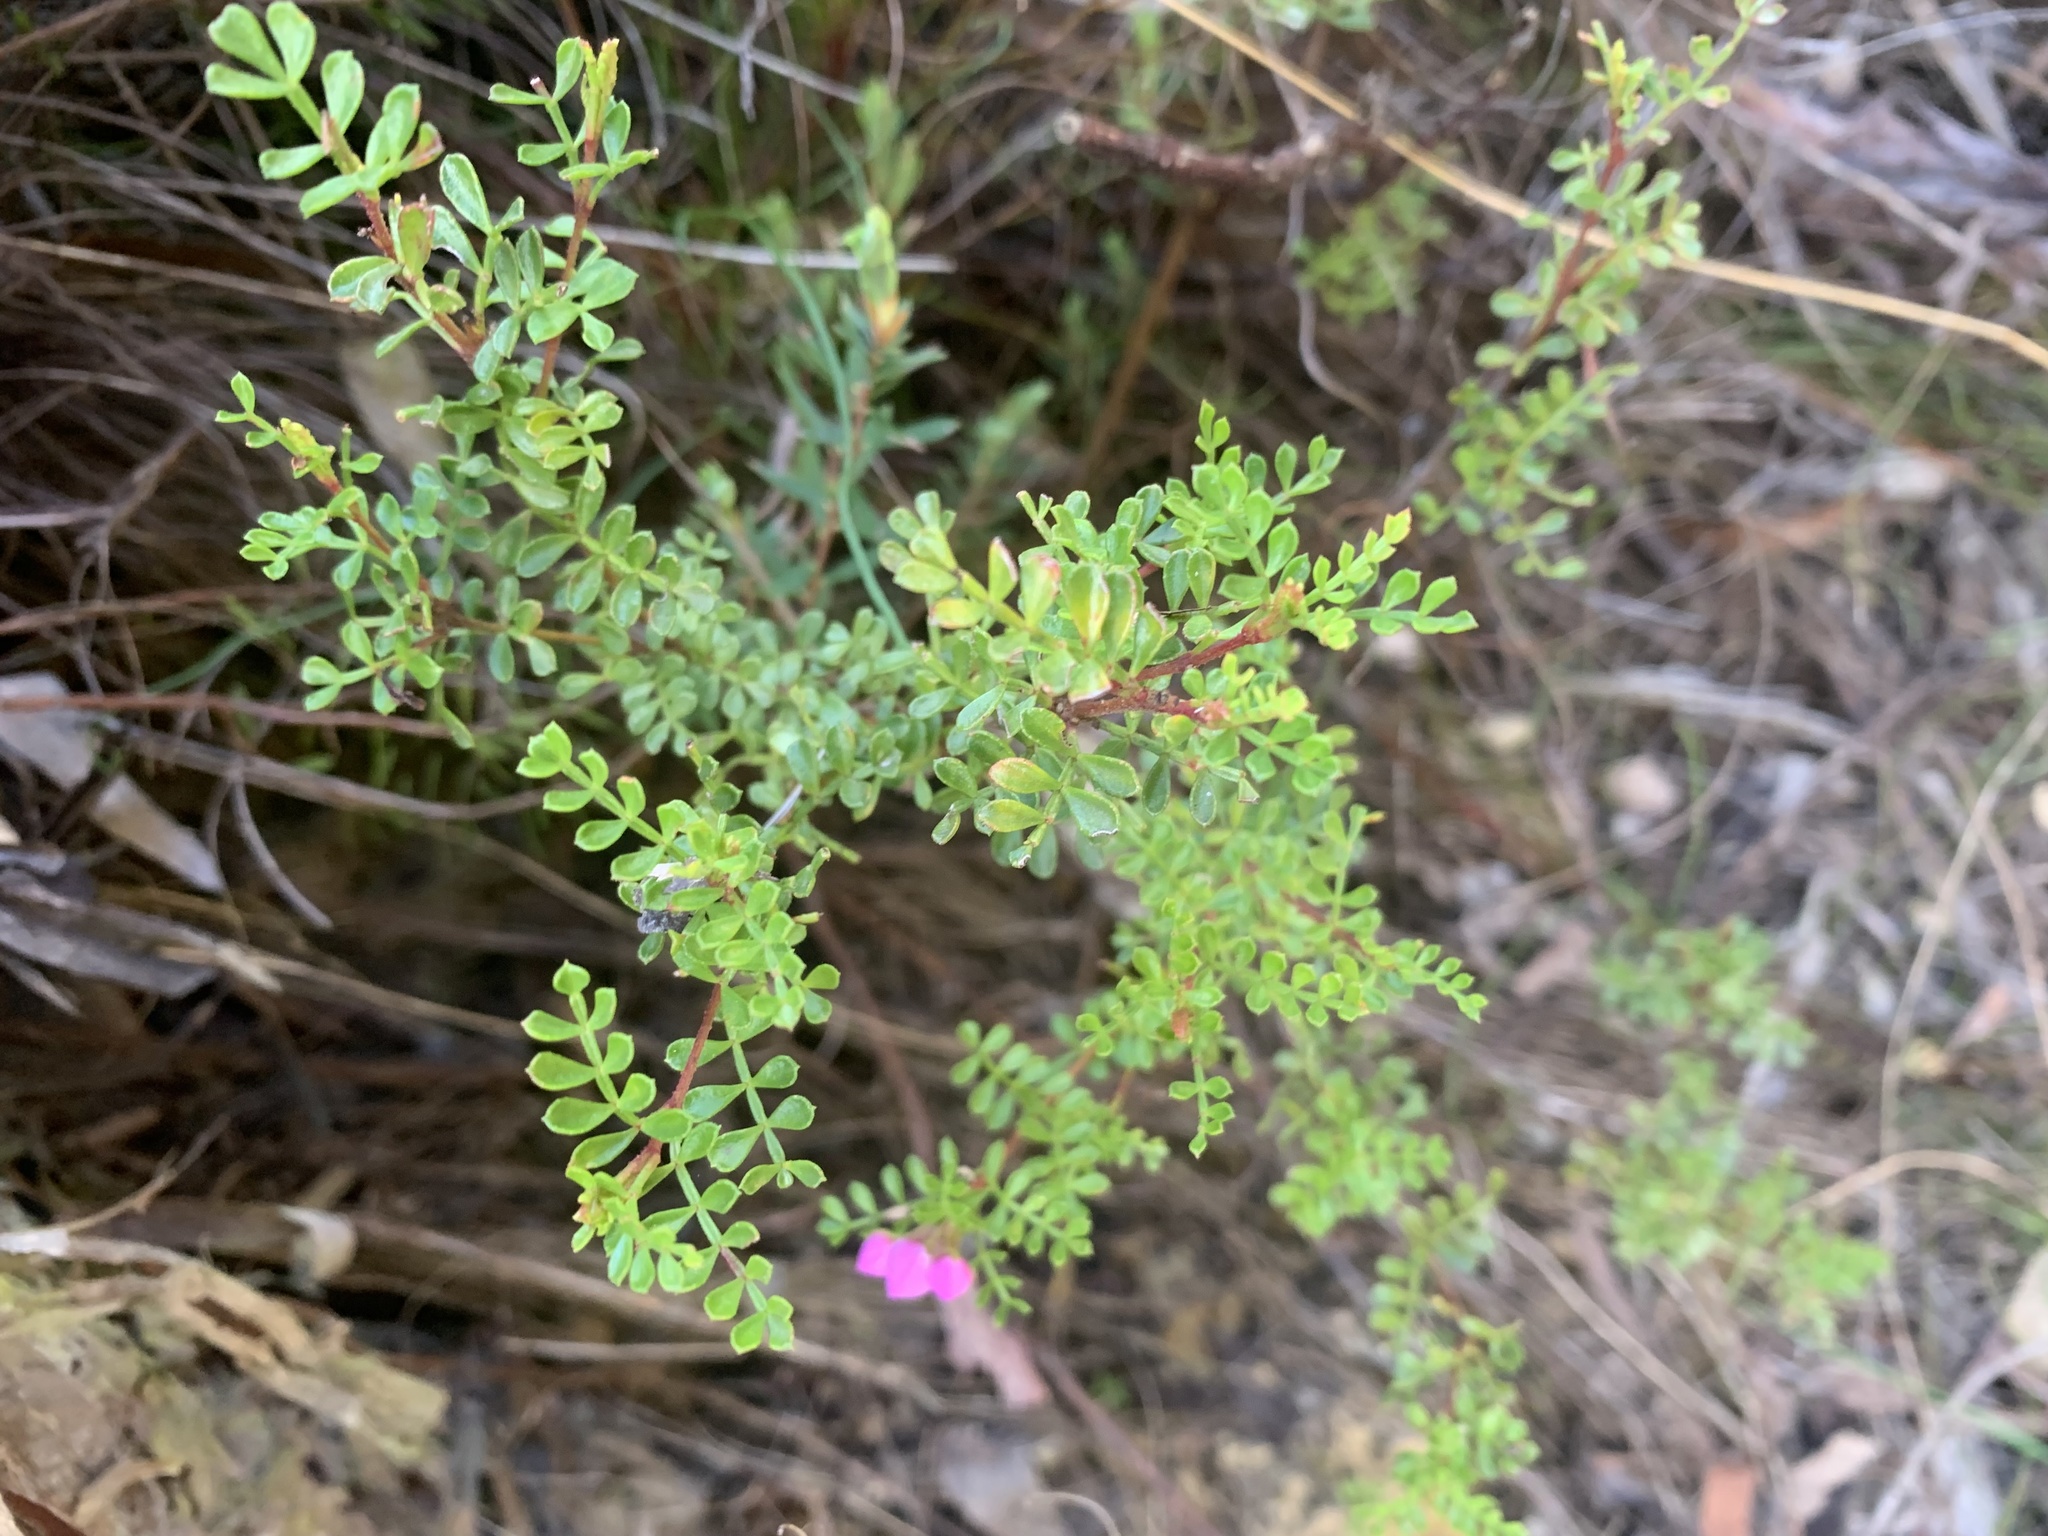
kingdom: Plantae
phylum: Tracheophyta
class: Magnoliopsida
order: Sapindales
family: Rutaceae
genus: Boronia
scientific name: Boronia microphylla
